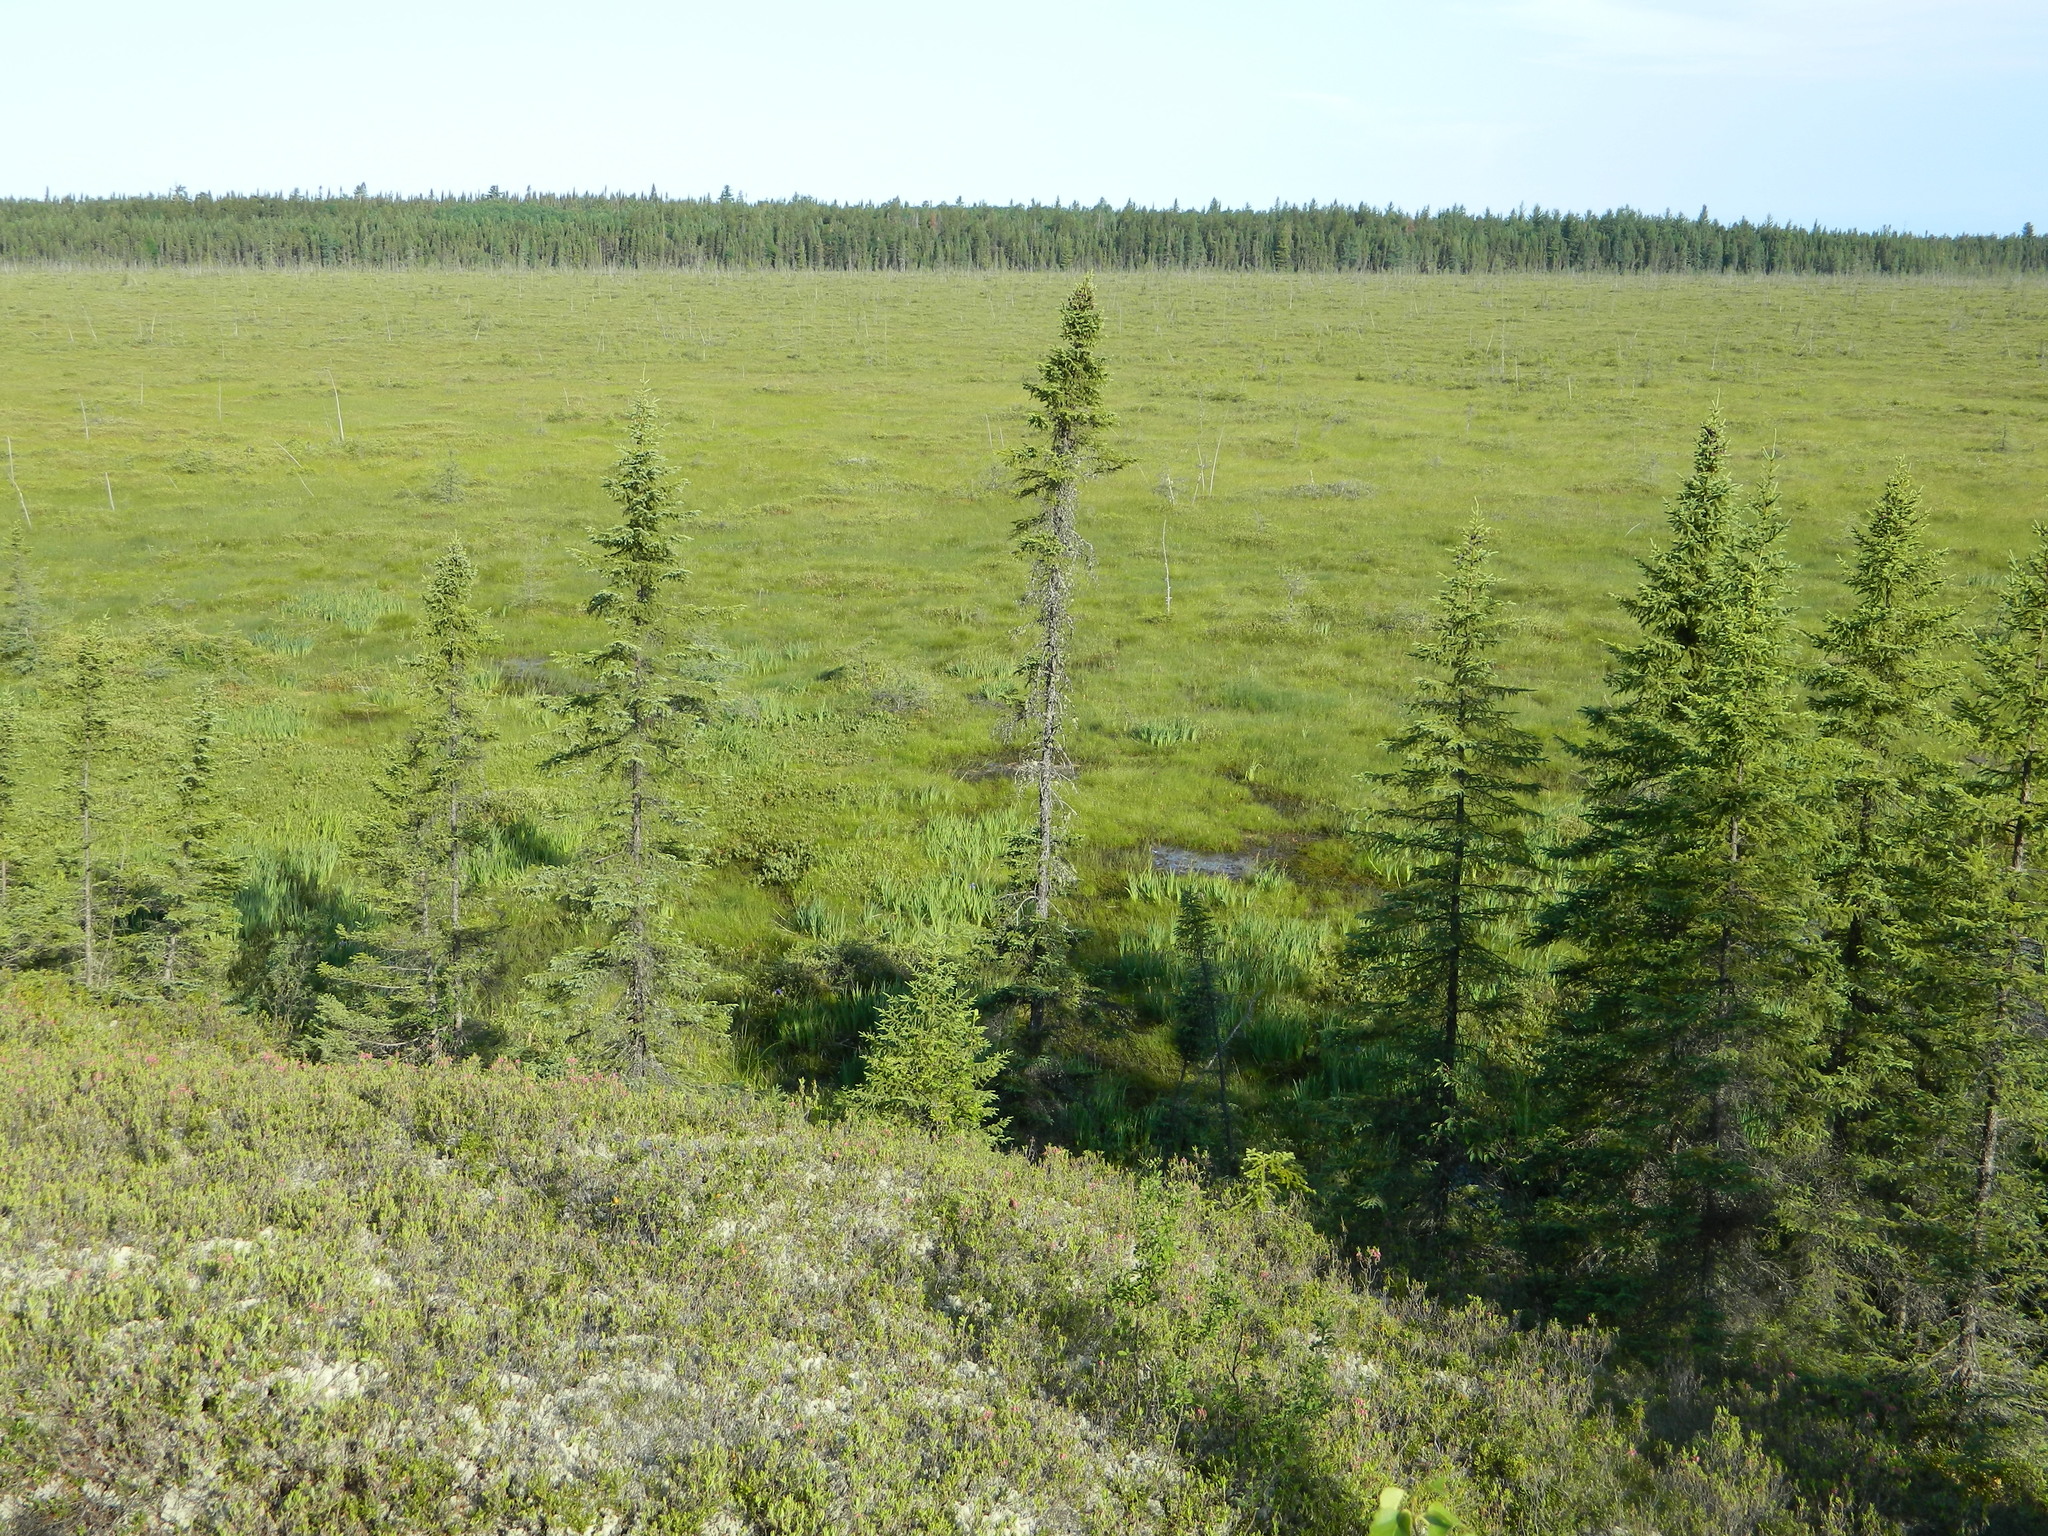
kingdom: Plantae
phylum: Tracheophyta
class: Pinopsida
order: Pinales
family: Pinaceae
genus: Picea
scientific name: Picea mariana
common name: Black spruce
